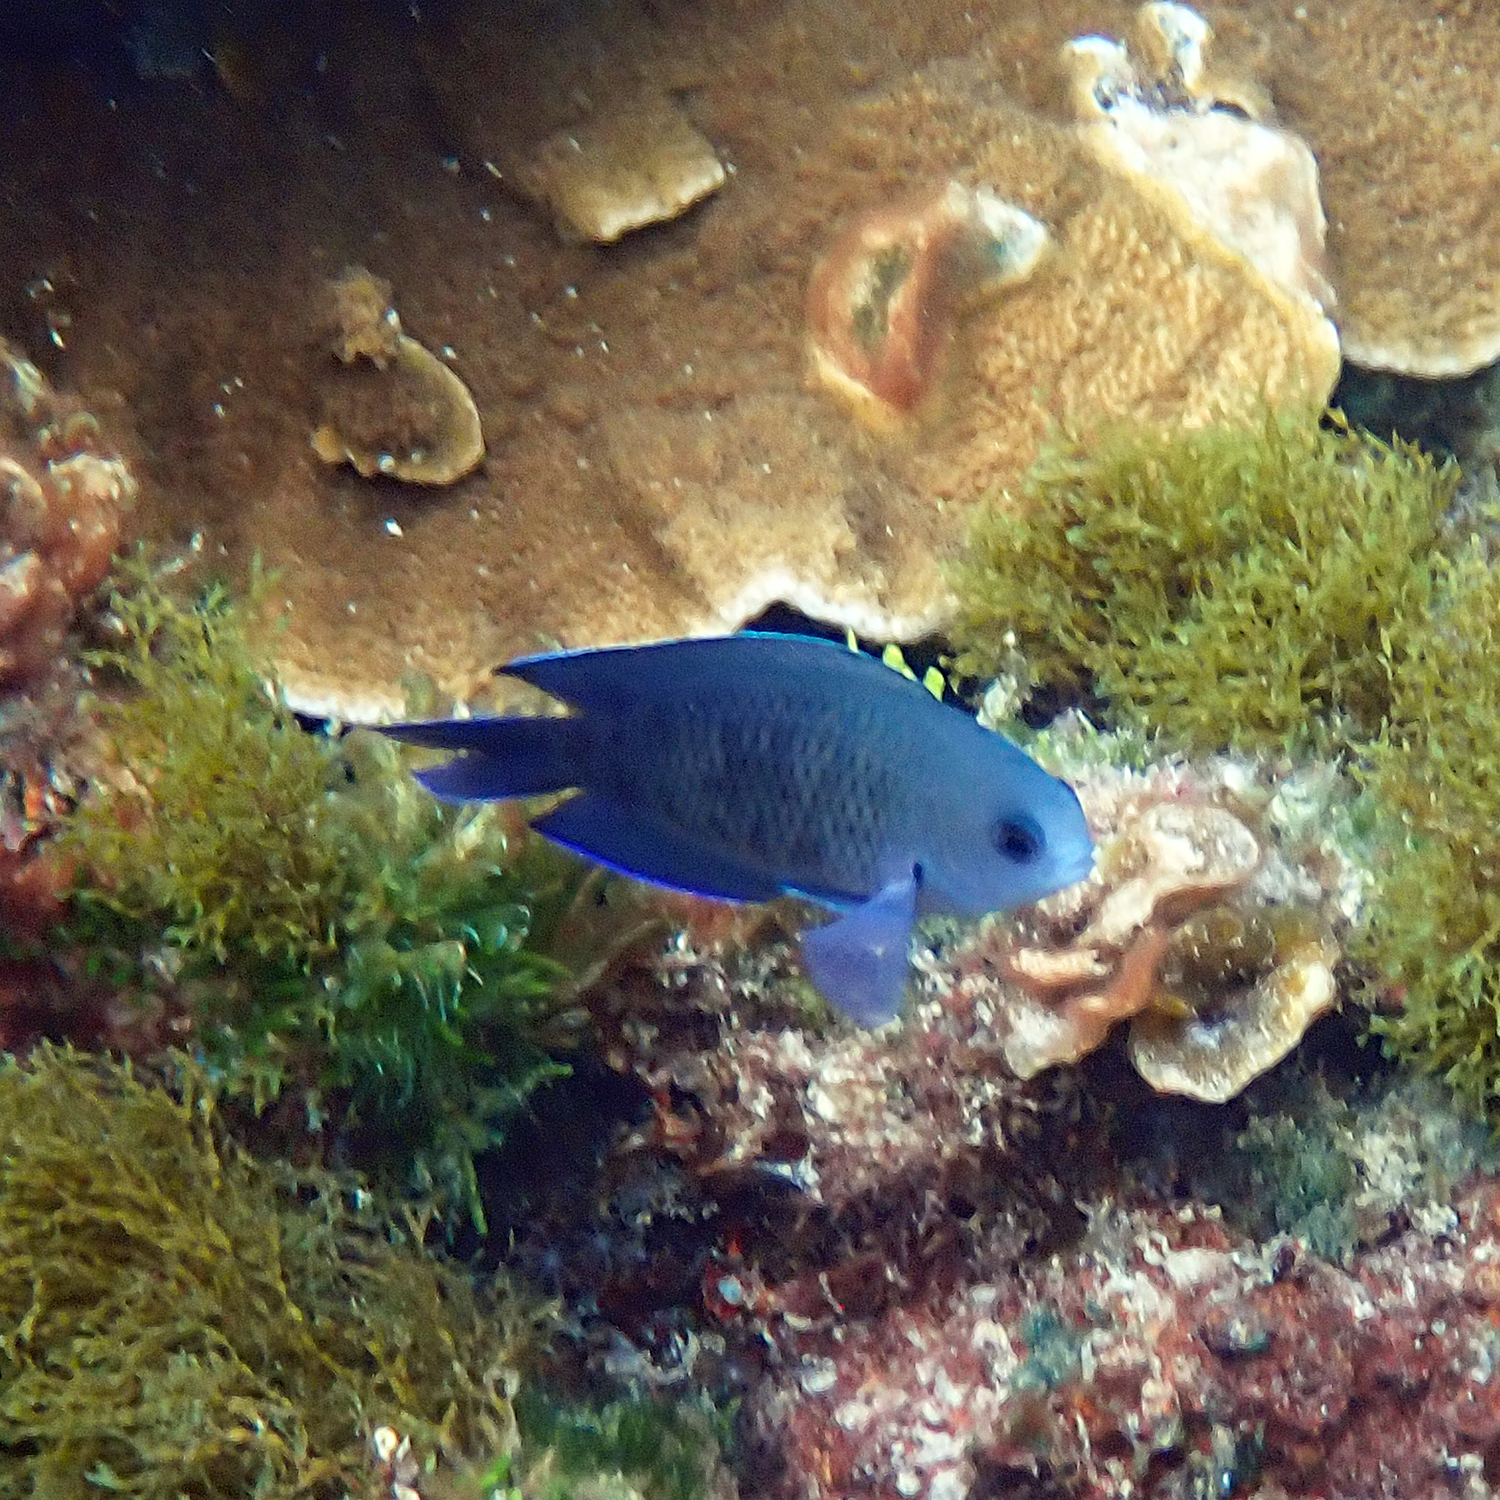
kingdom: Animalia
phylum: Chordata
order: Perciformes
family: Pomacentridae
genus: Chrysiptera
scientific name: Chrysiptera notialis
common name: Southern demoiselle
